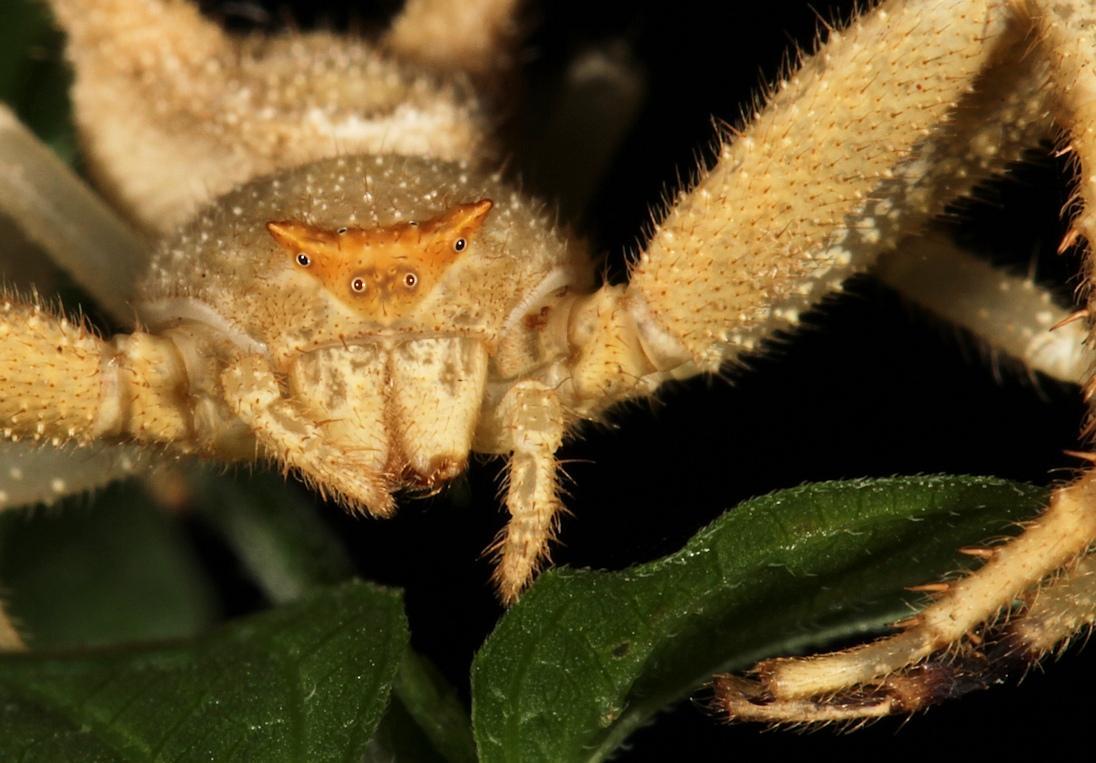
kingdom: Animalia
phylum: Arthropoda
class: Arachnida
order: Araneae
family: Thomisidae
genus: Thomisus
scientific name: Thomisus granulatus
